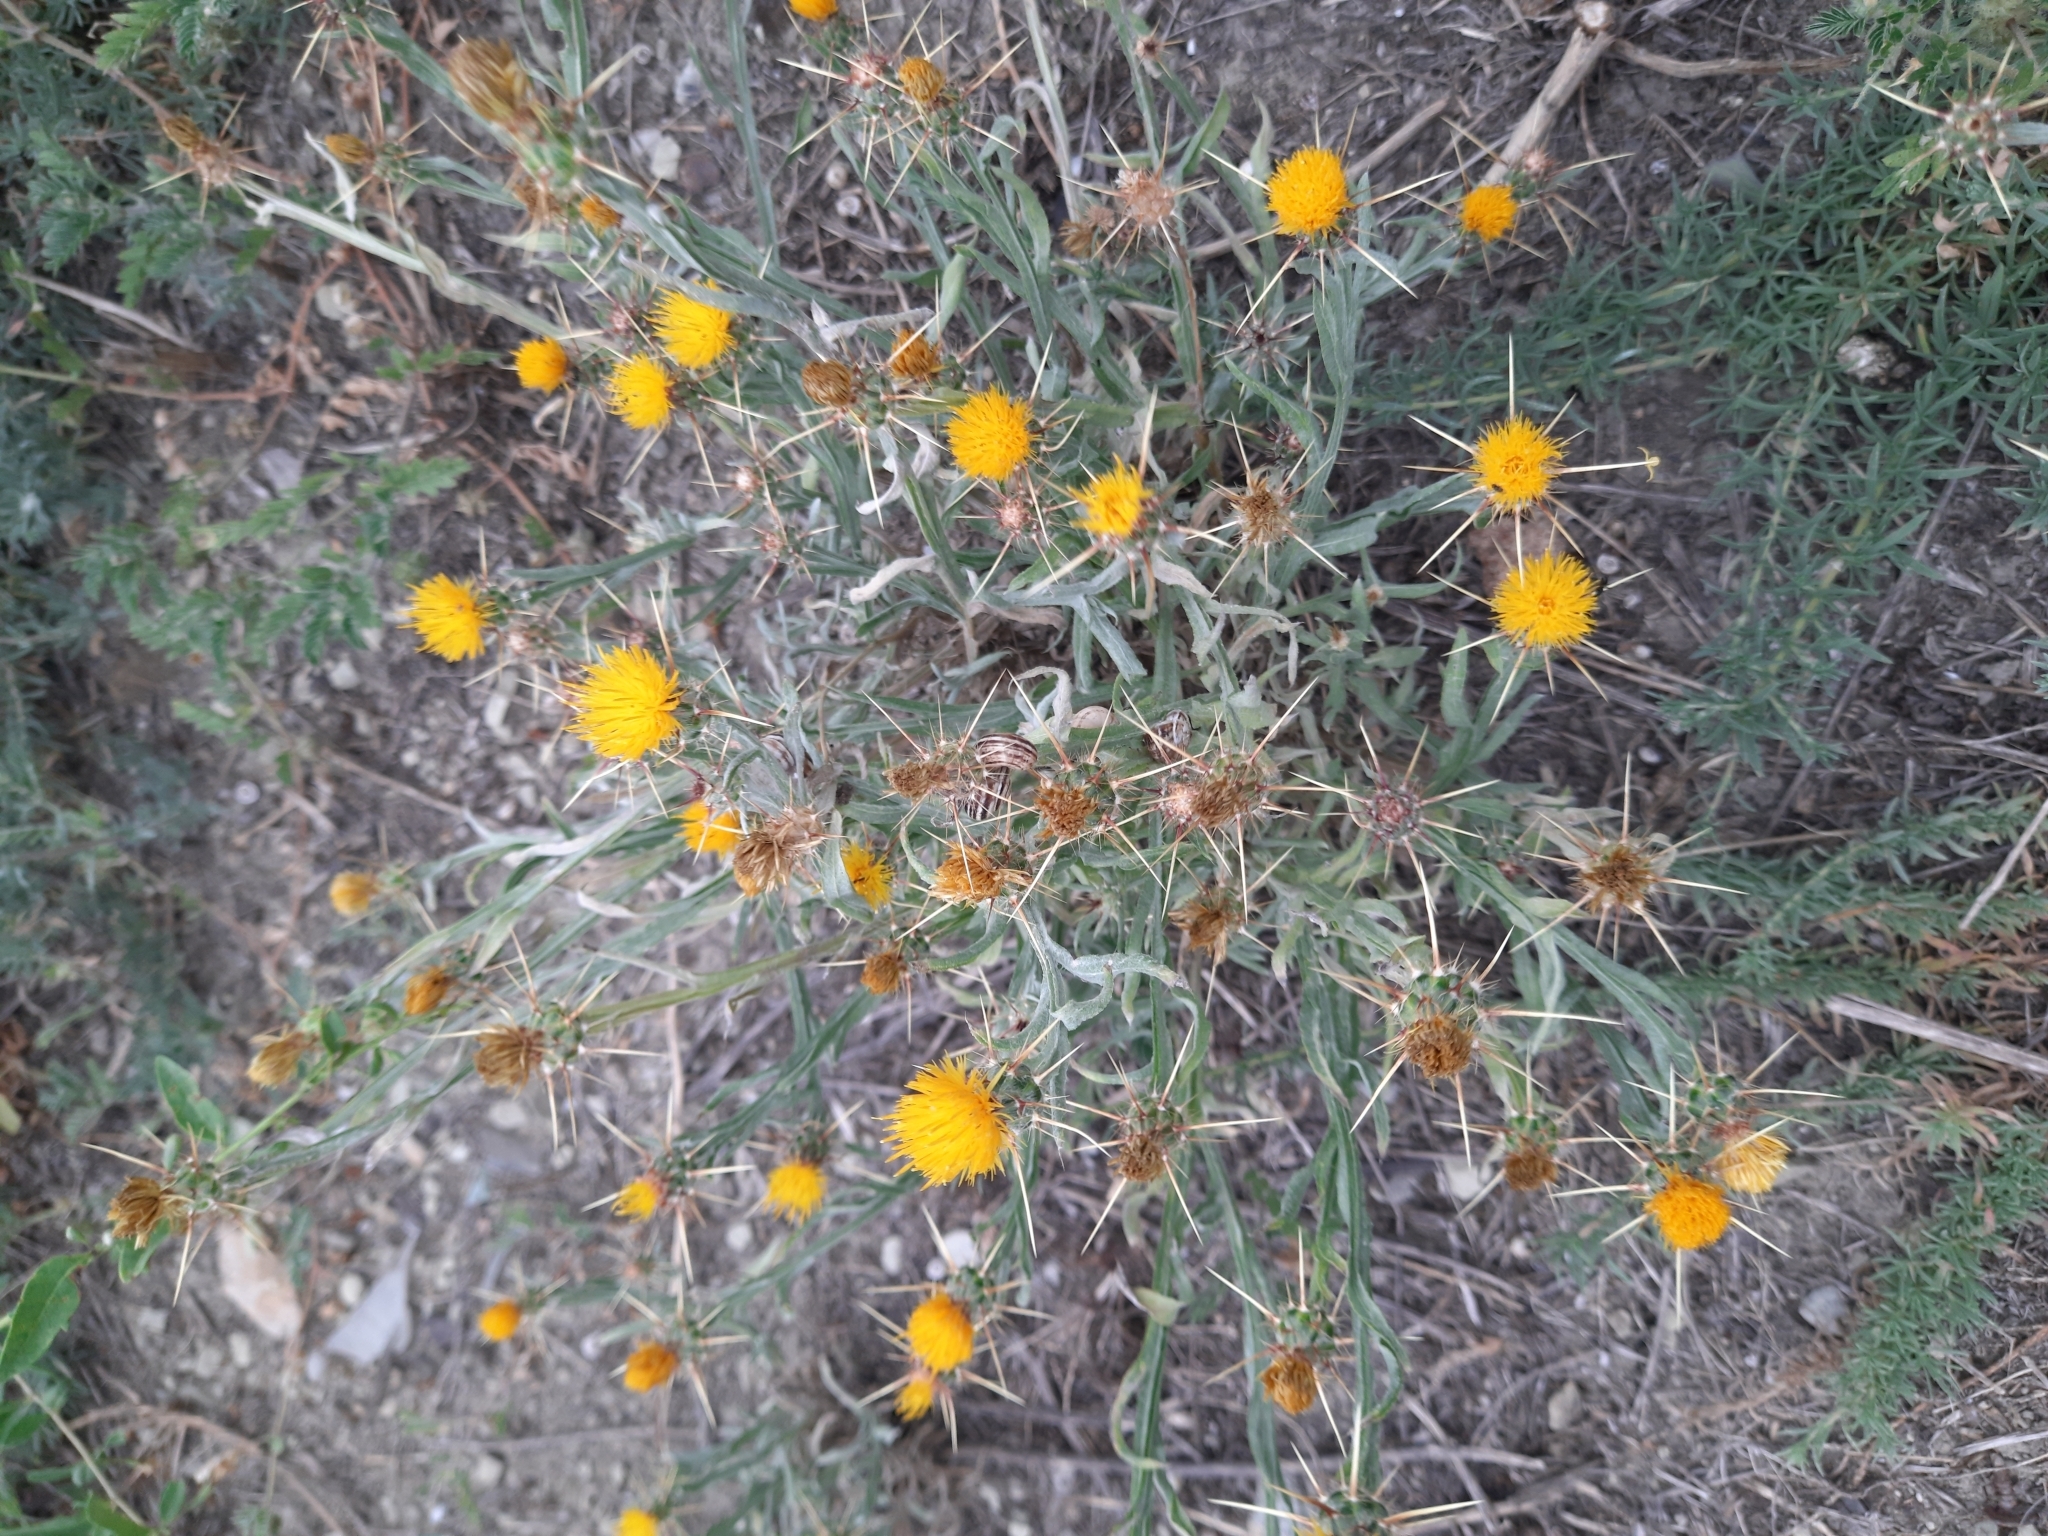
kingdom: Plantae
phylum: Tracheophyta
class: Magnoliopsida
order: Asterales
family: Asteraceae
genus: Centaurea
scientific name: Centaurea solstitialis
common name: Yellow star-thistle
